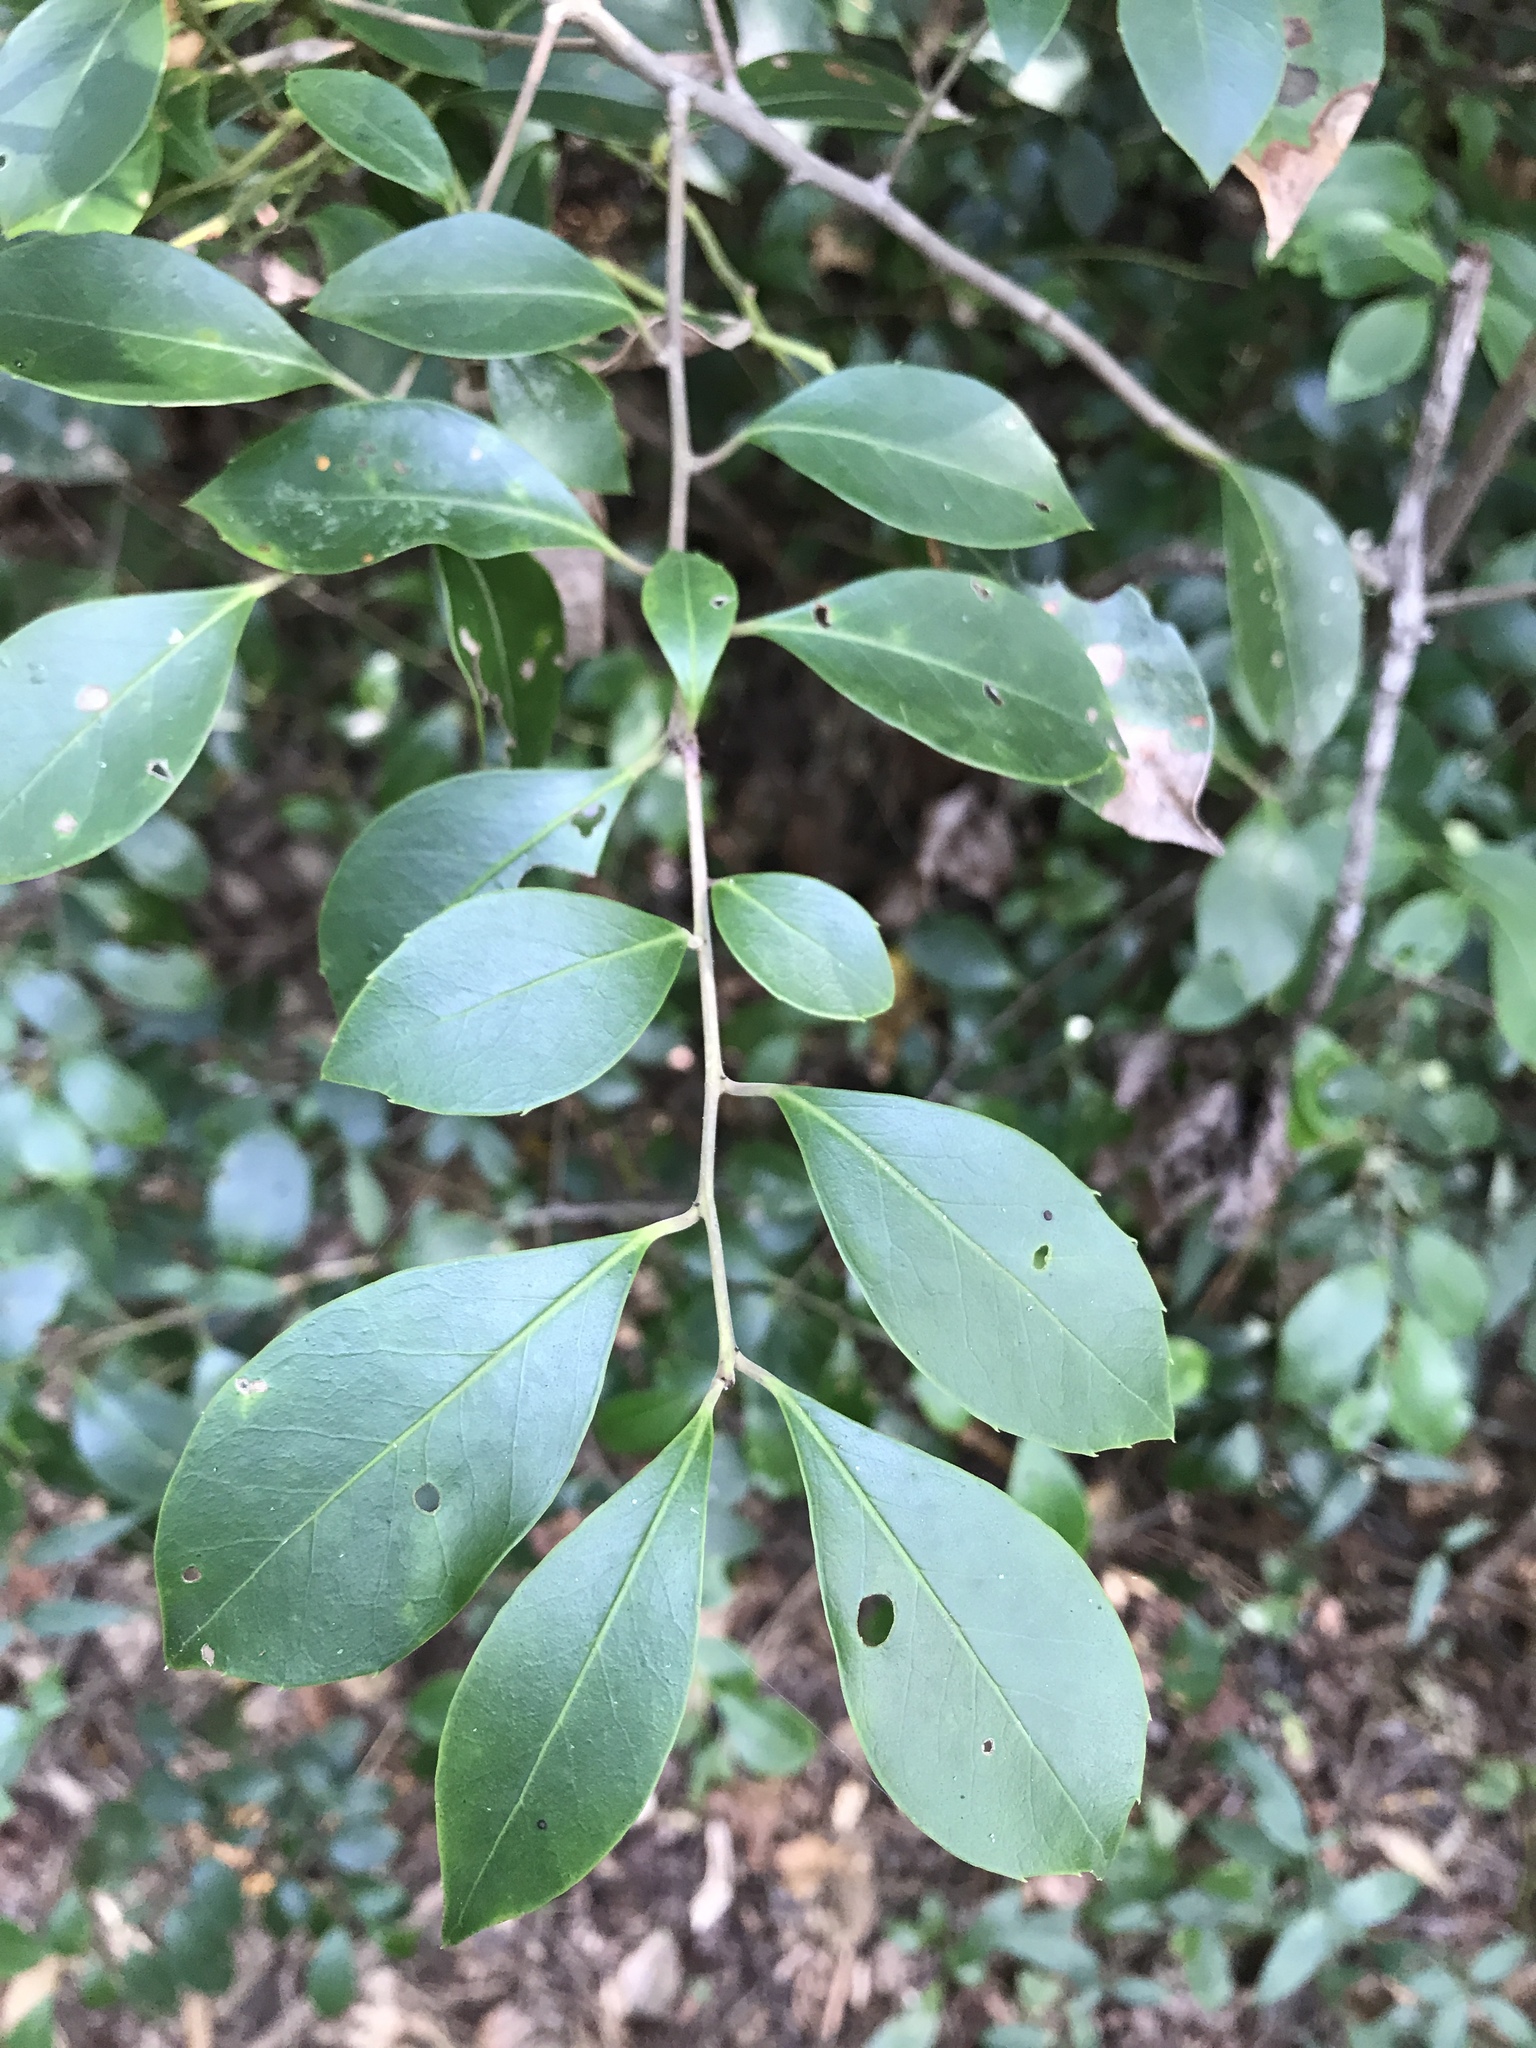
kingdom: Plantae
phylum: Tracheophyta
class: Magnoliopsida
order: Aquifoliales
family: Aquifoliaceae
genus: Ilex
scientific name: Ilex coriacea
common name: Sweet gallberry
